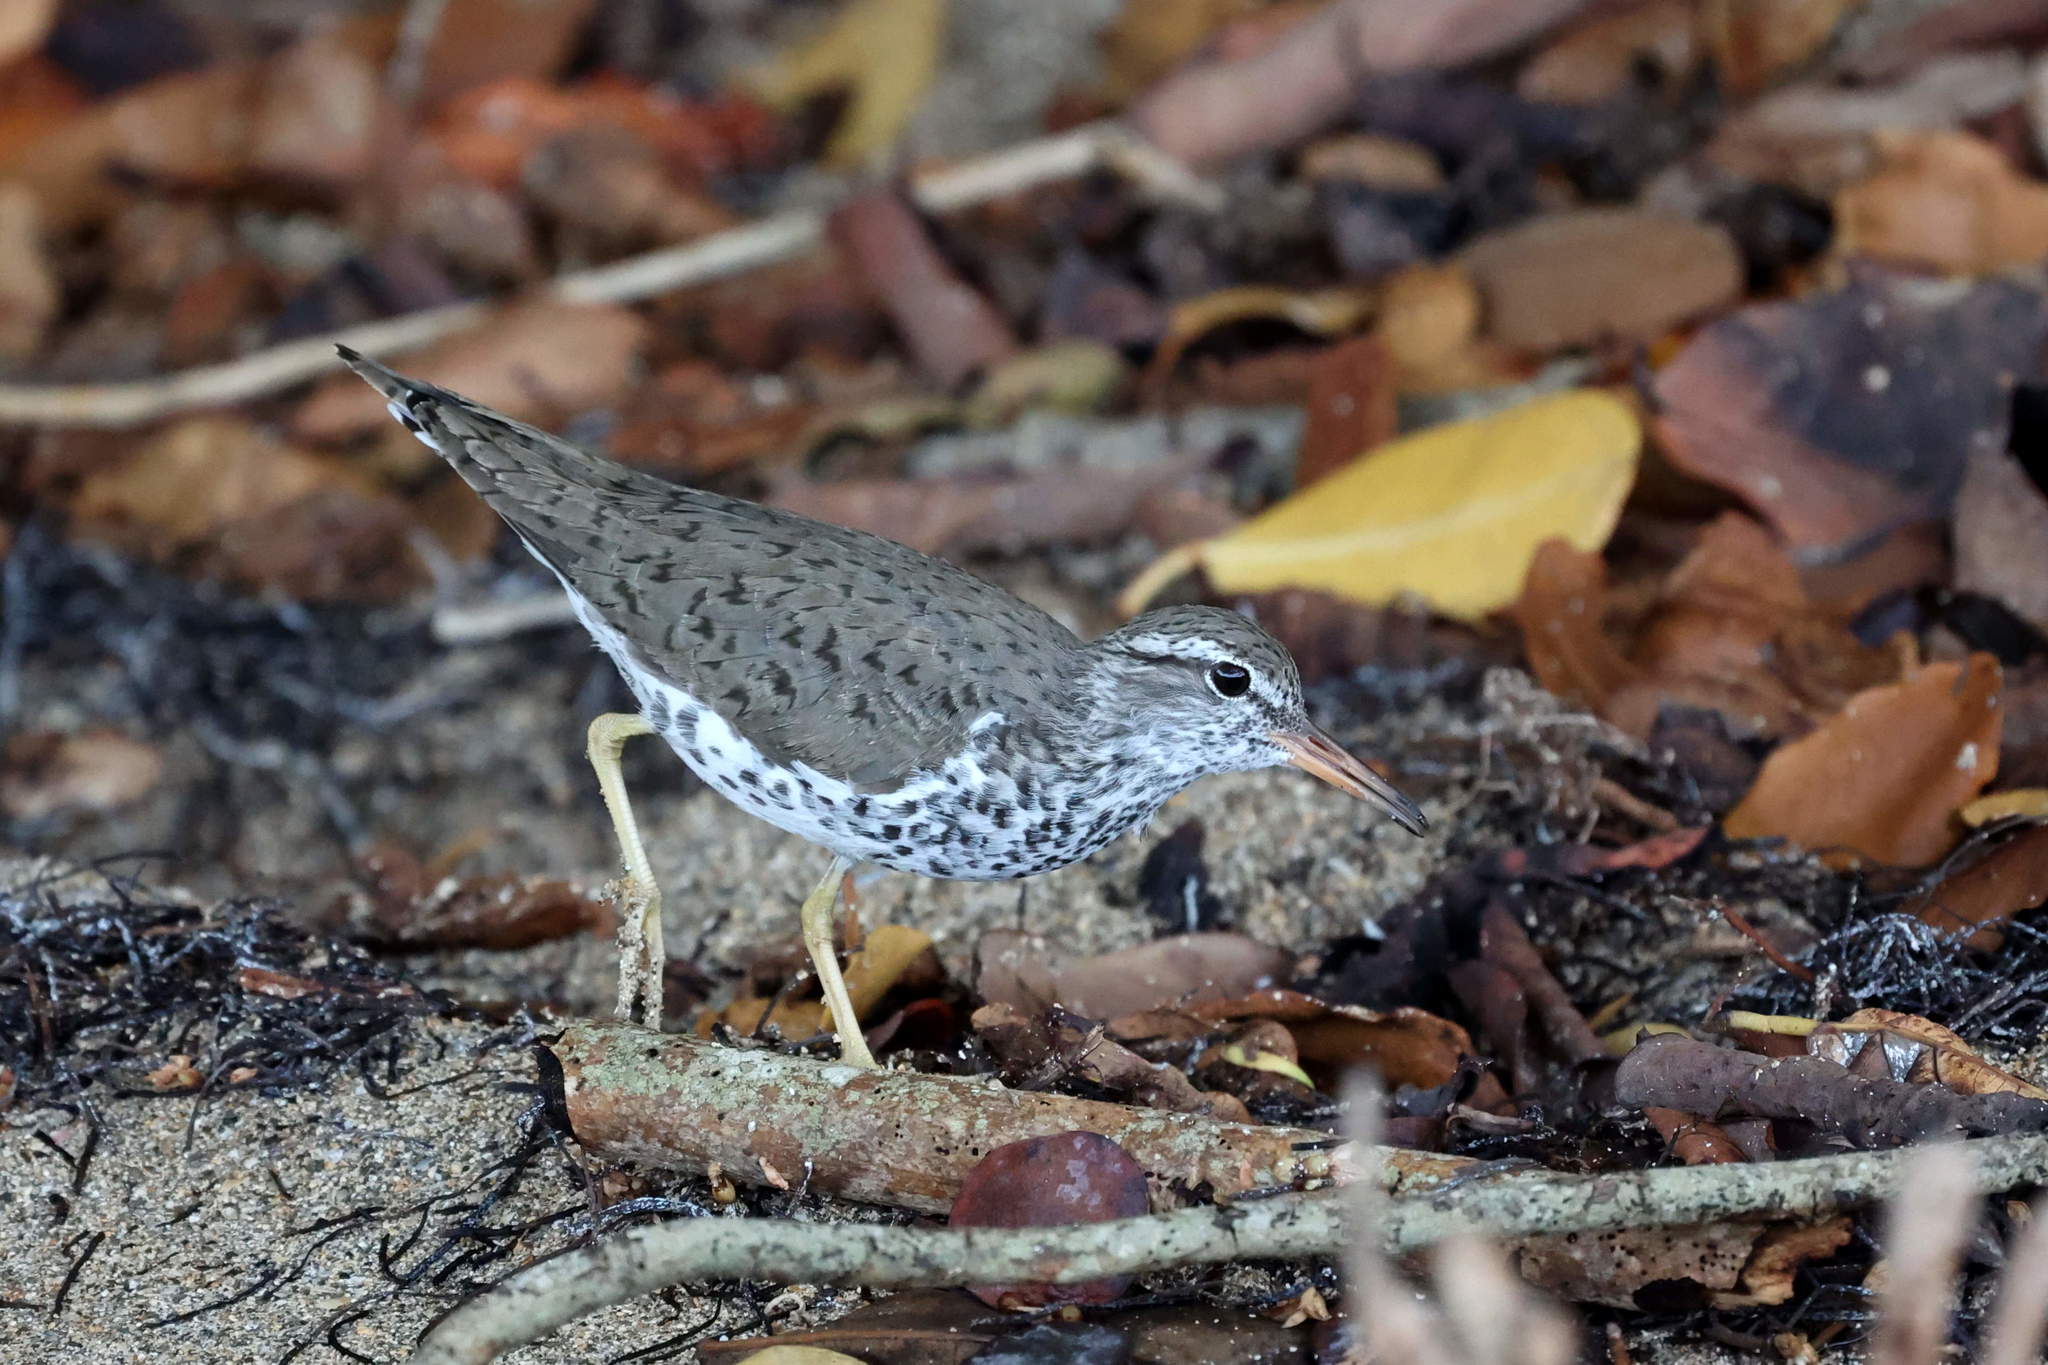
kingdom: Animalia
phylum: Chordata
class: Aves
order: Charadriiformes
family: Scolopacidae
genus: Actitis
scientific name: Actitis macularius
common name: Spotted sandpiper
